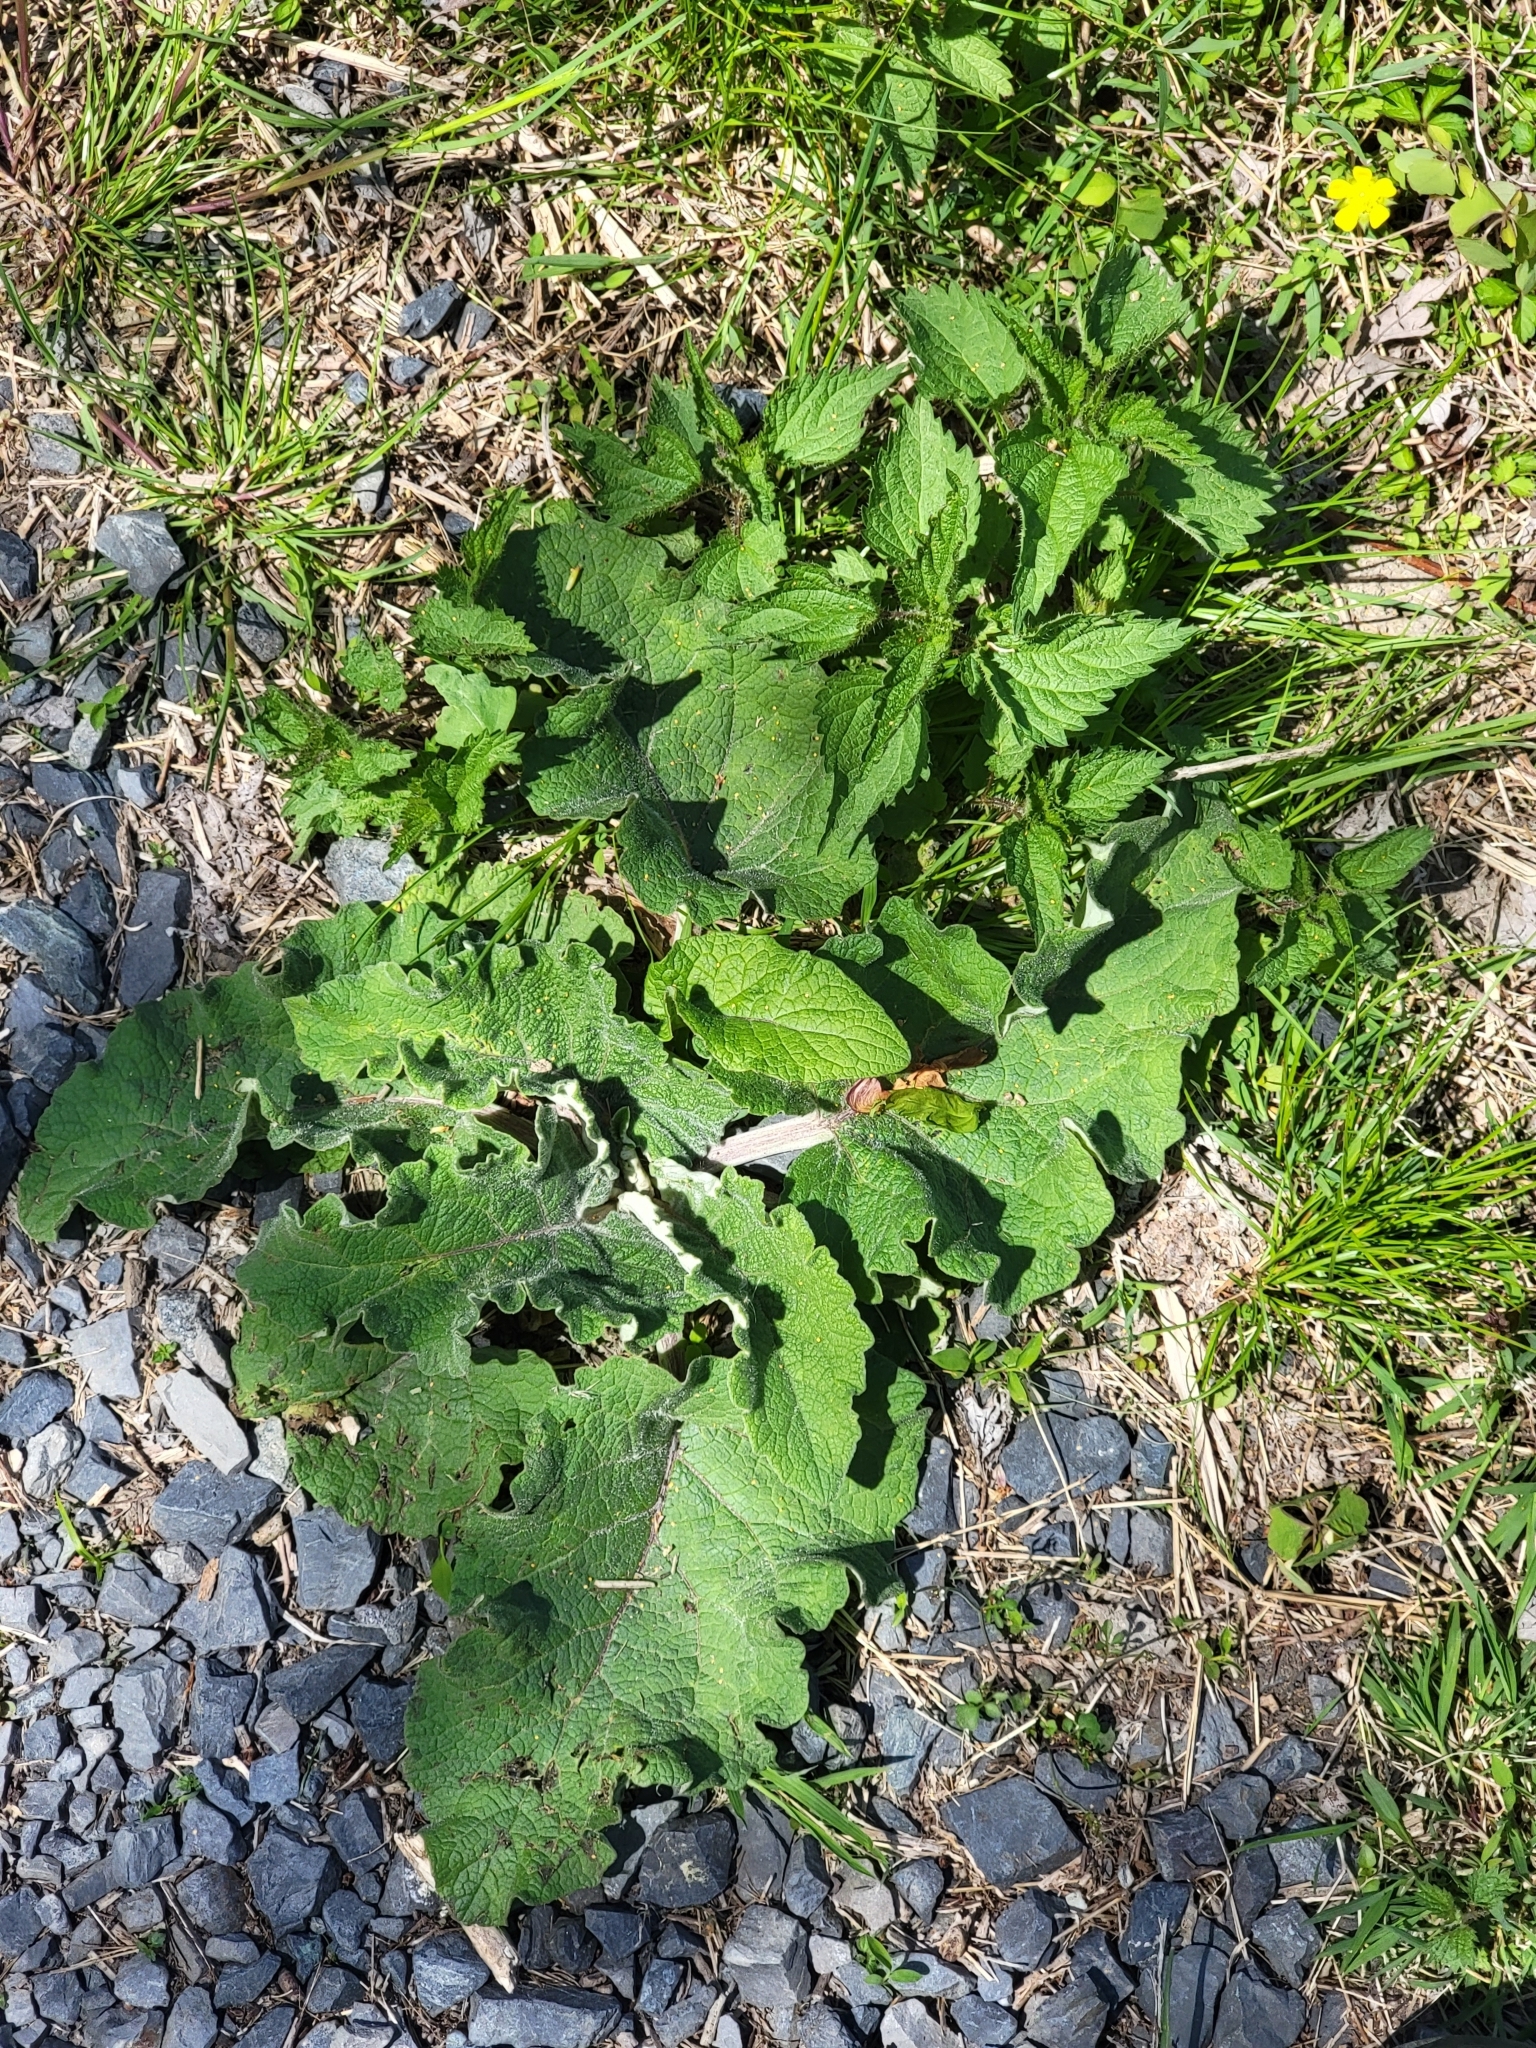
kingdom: Plantae
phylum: Tracheophyta
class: Magnoliopsida
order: Asterales
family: Asteraceae
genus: Arctium
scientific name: Arctium
